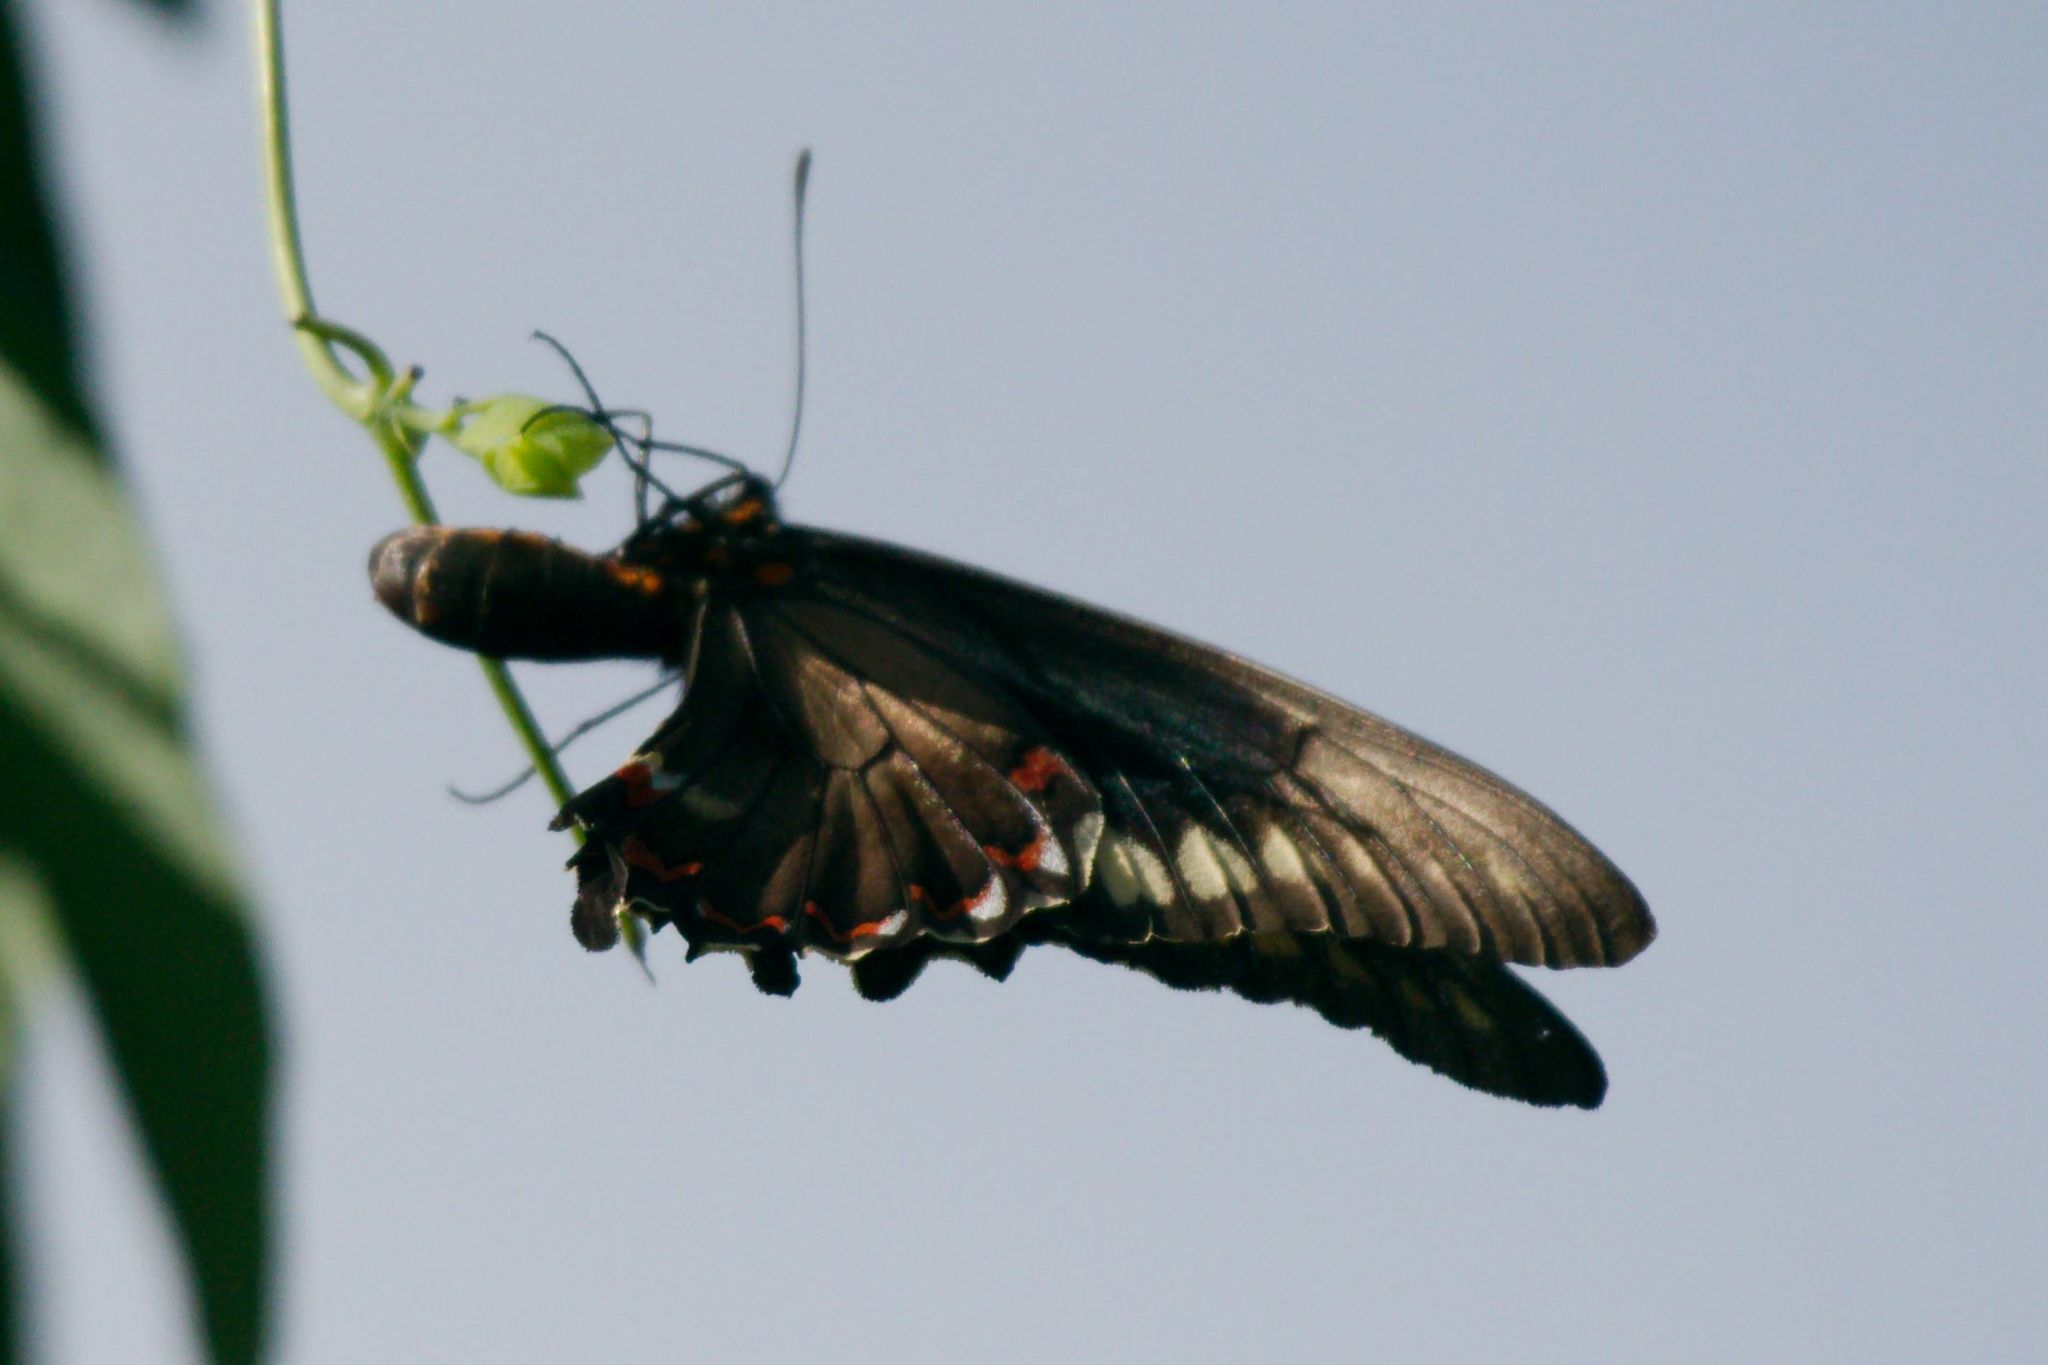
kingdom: Animalia
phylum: Arthropoda
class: Insecta
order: Lepidoptera
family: Papilionidae
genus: Battus
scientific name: Battus polydamas
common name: Polydamas swallowtail
